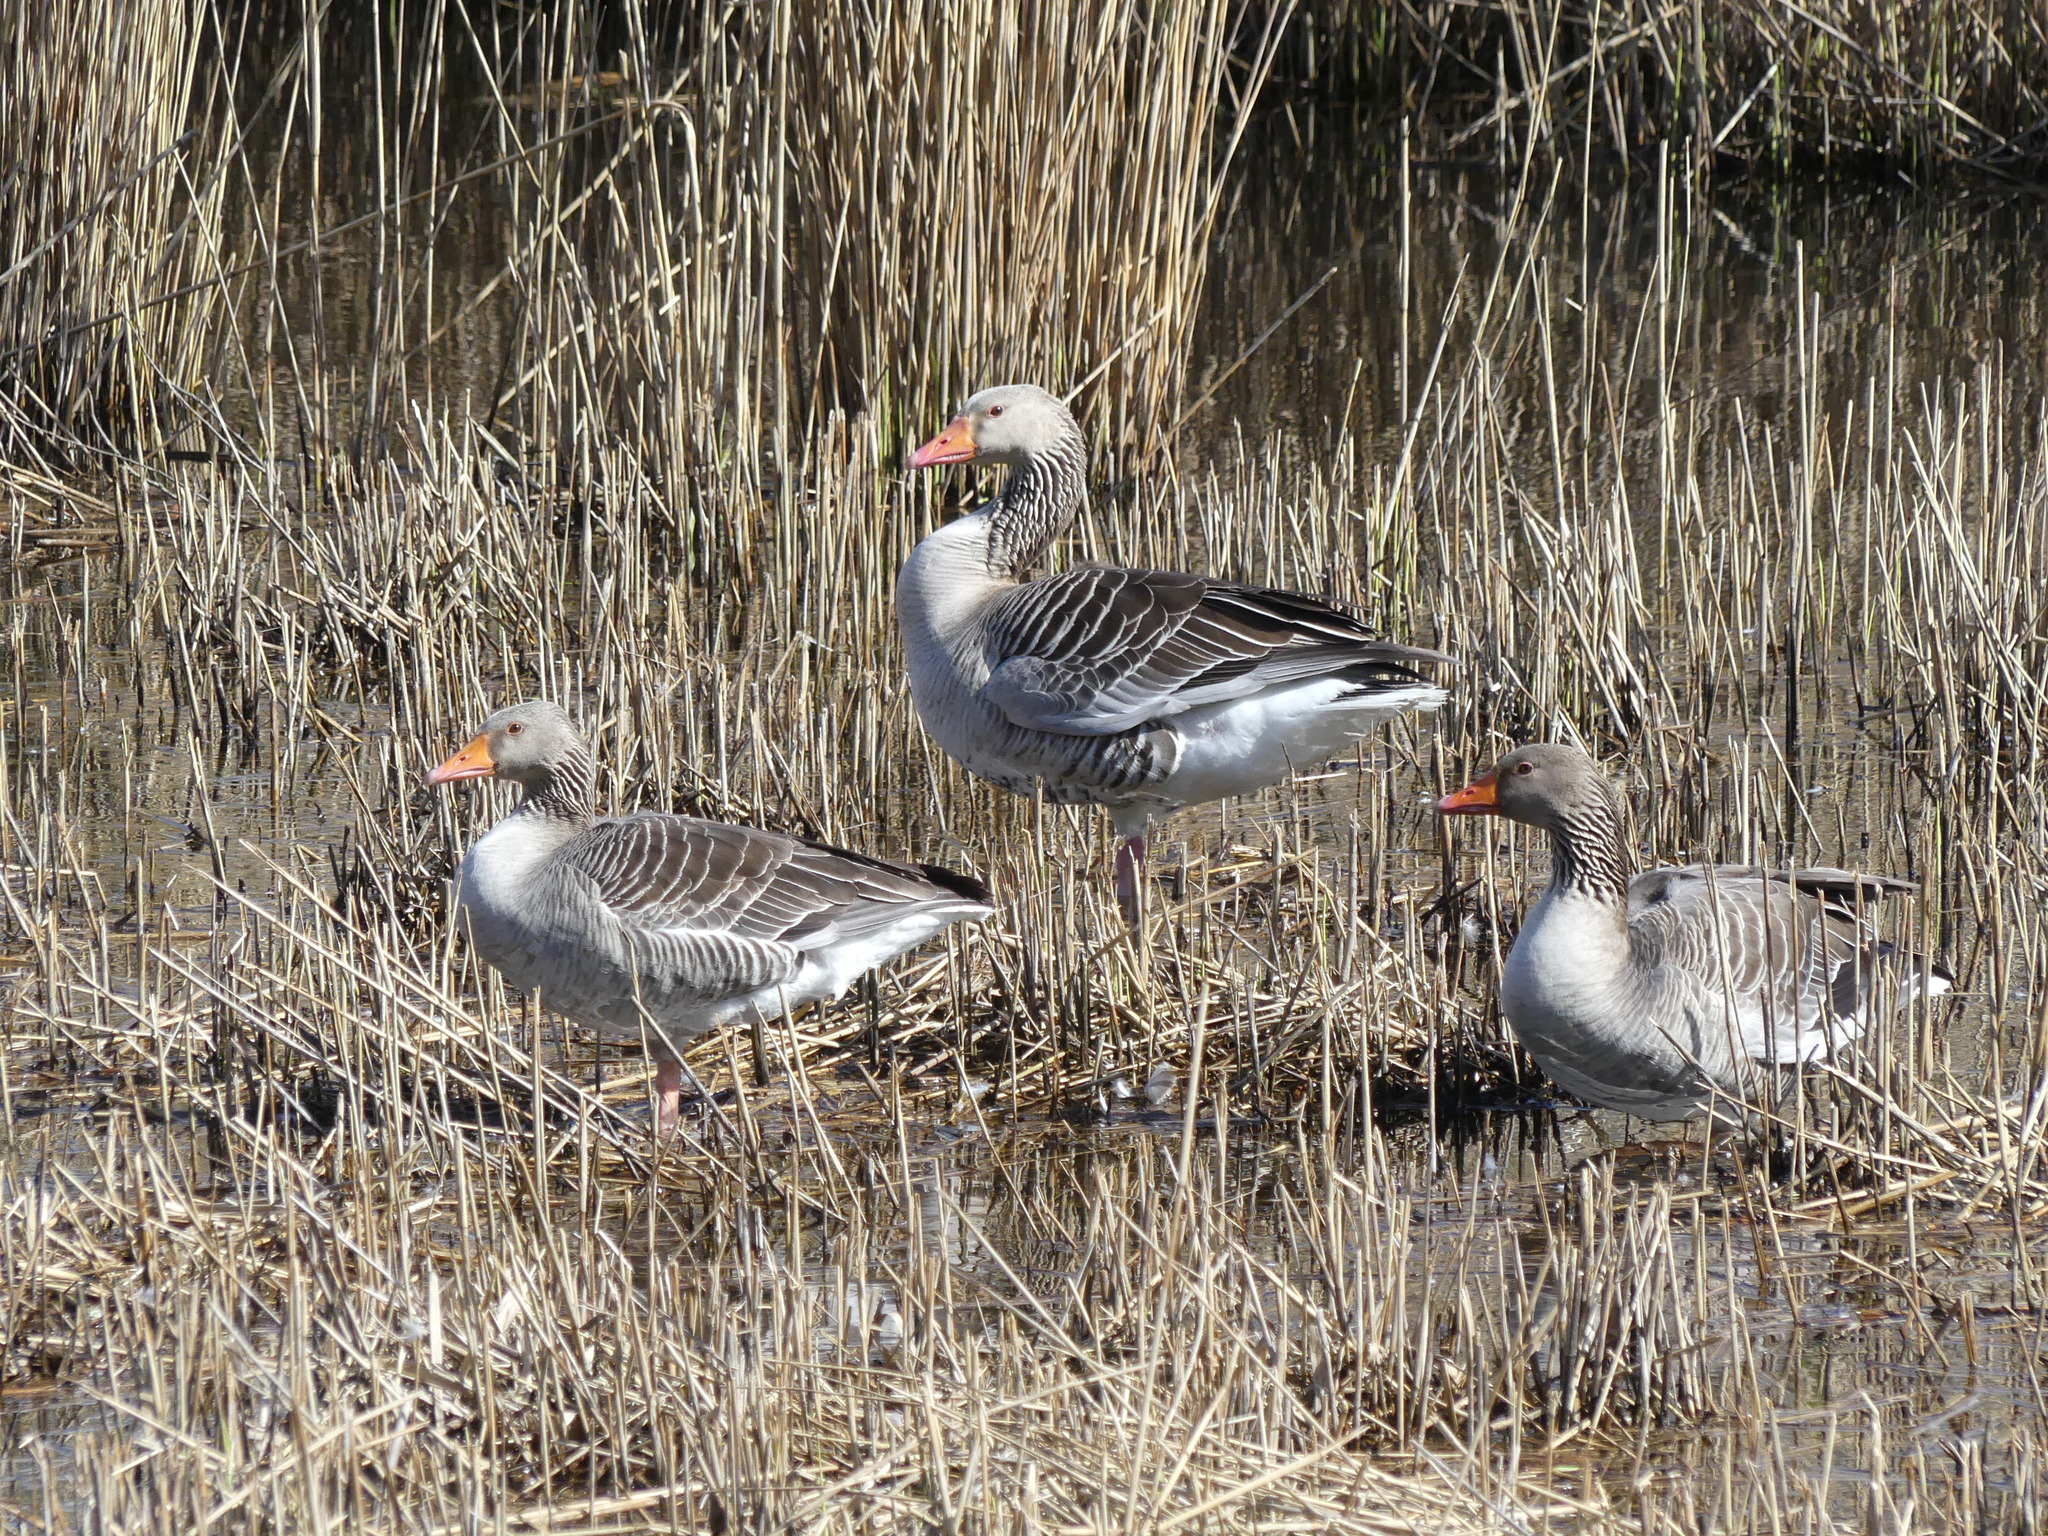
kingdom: Animalia
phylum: Chordata
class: Aves
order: Anseriformes
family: Anatidae
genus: Anser
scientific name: Anser anser
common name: Greylag goose
